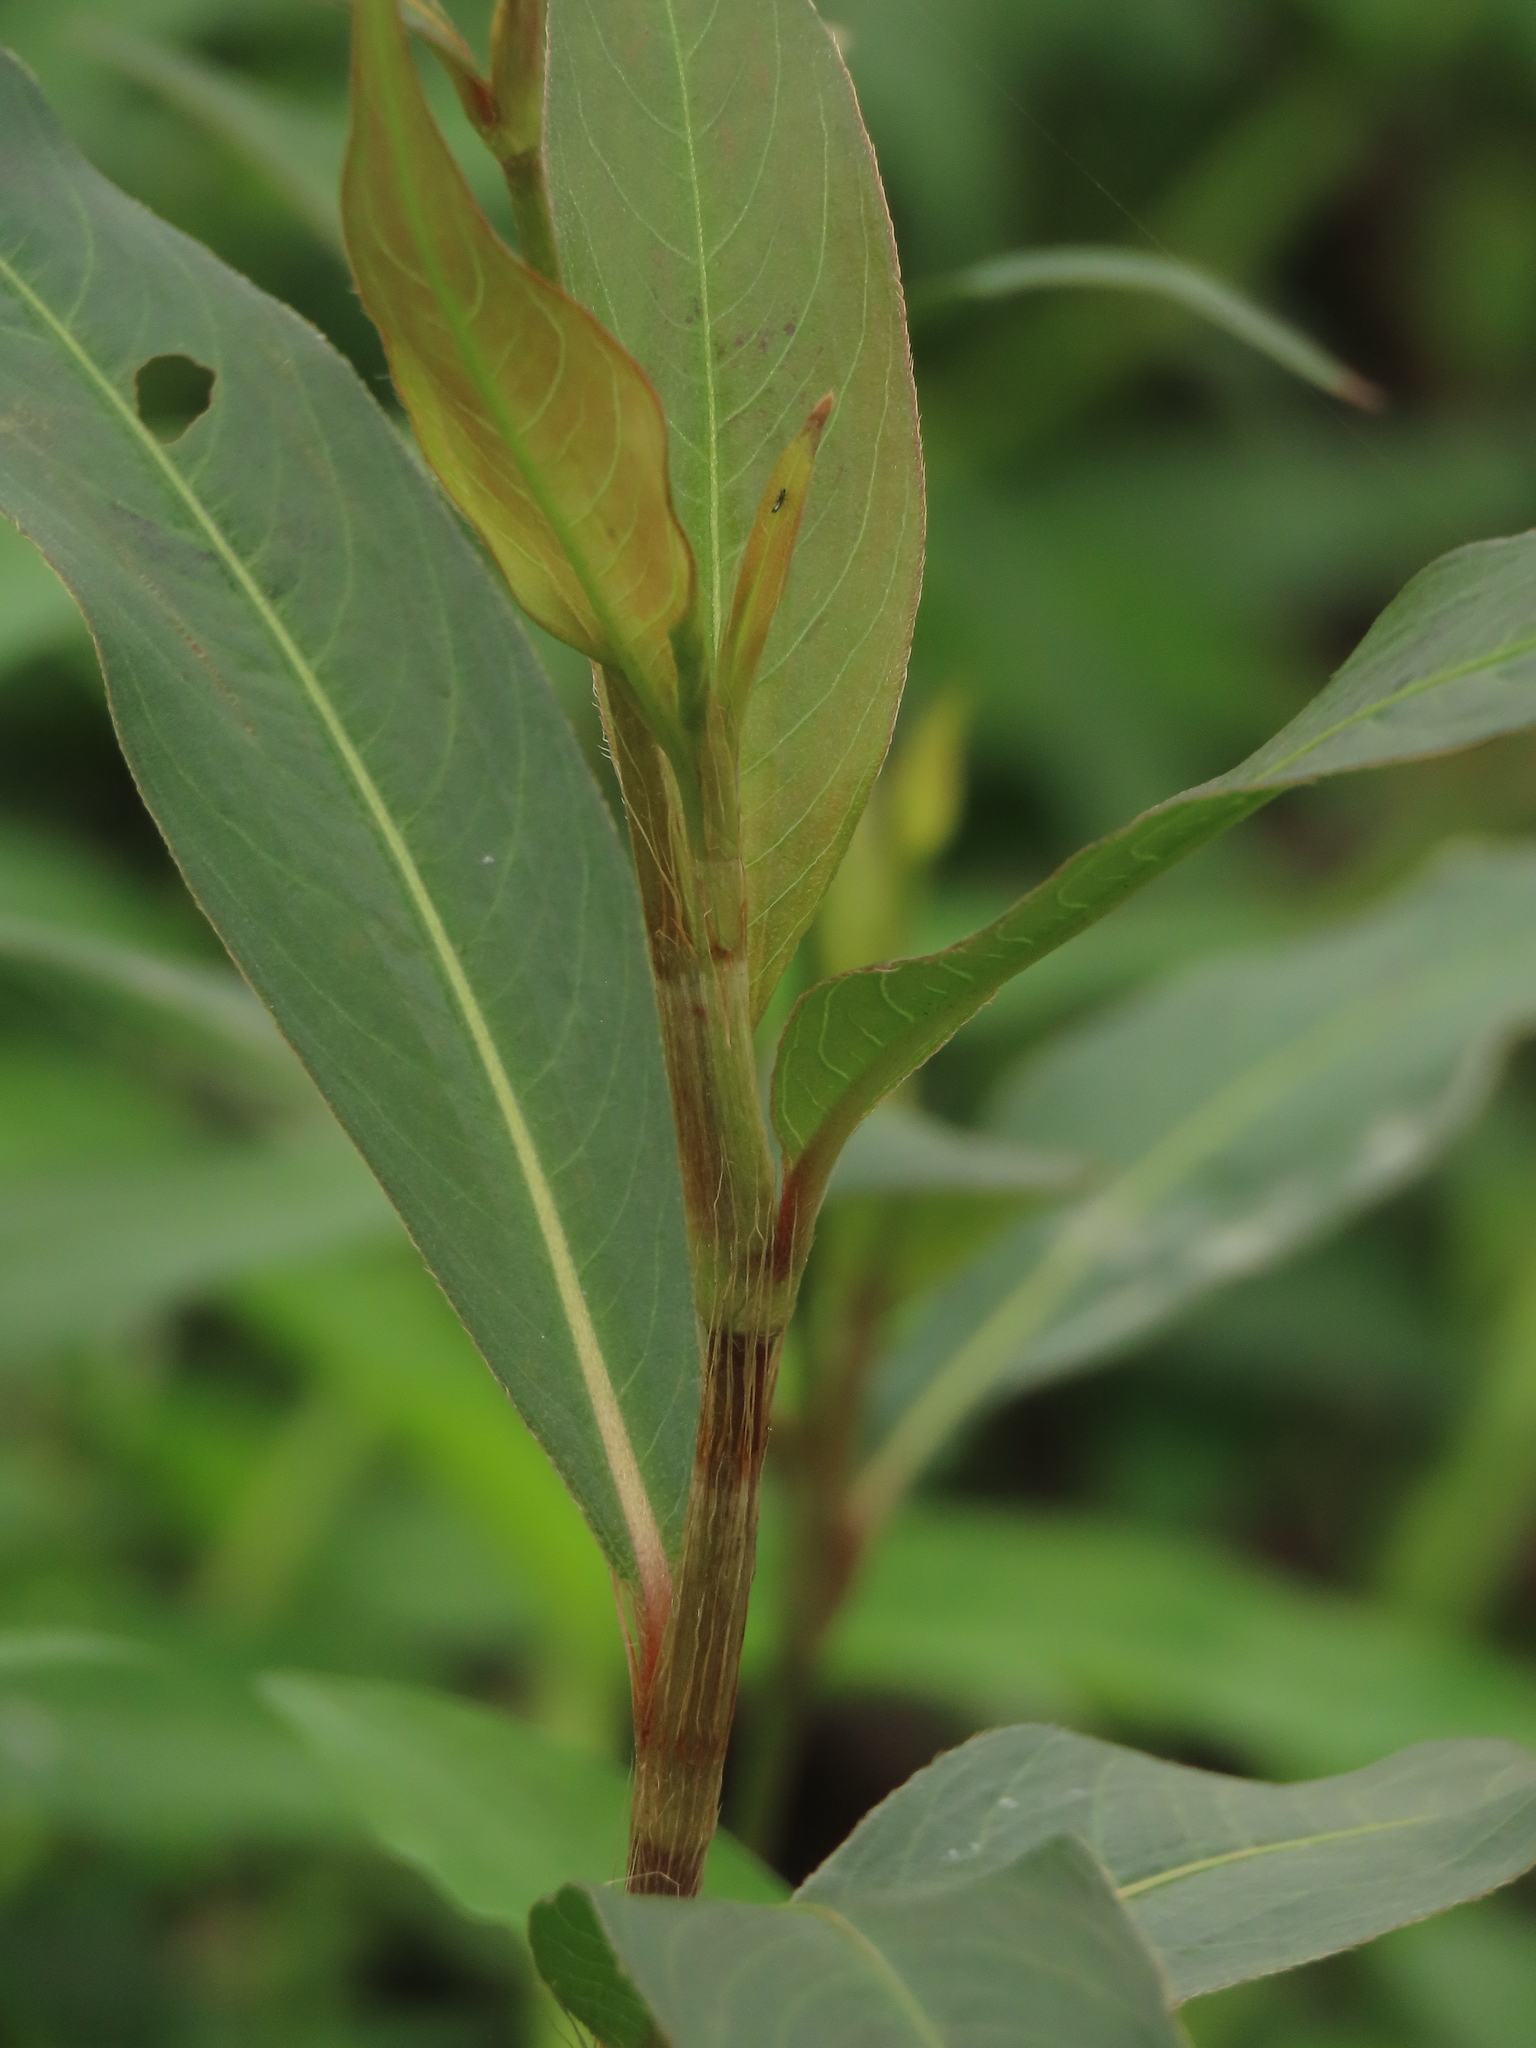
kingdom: Plantae
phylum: Tracheophyta
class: Magnoliopsida
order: Caryophyllales
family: Polygonaceae
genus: Persicaria
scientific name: Persicaria barbata
